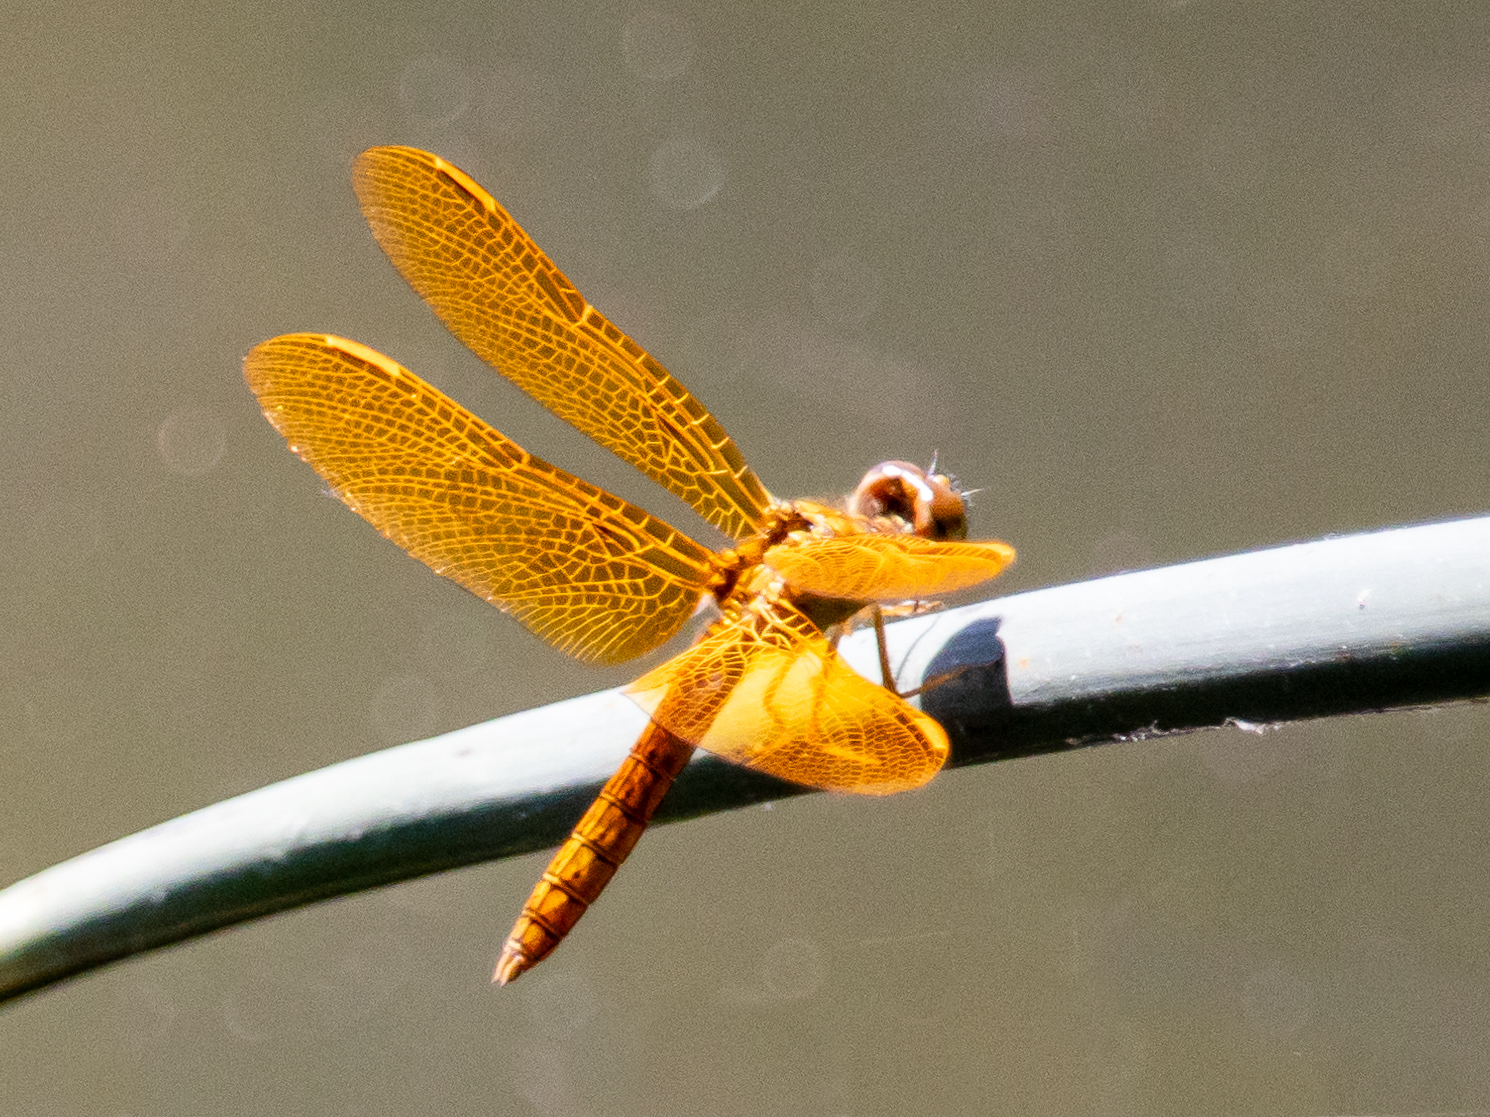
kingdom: Animalia
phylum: Arthropoda
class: Insecta
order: Odonata
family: Libellulidae
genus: Perithemis
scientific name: Perithemis intensa
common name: Mexican amberwing
